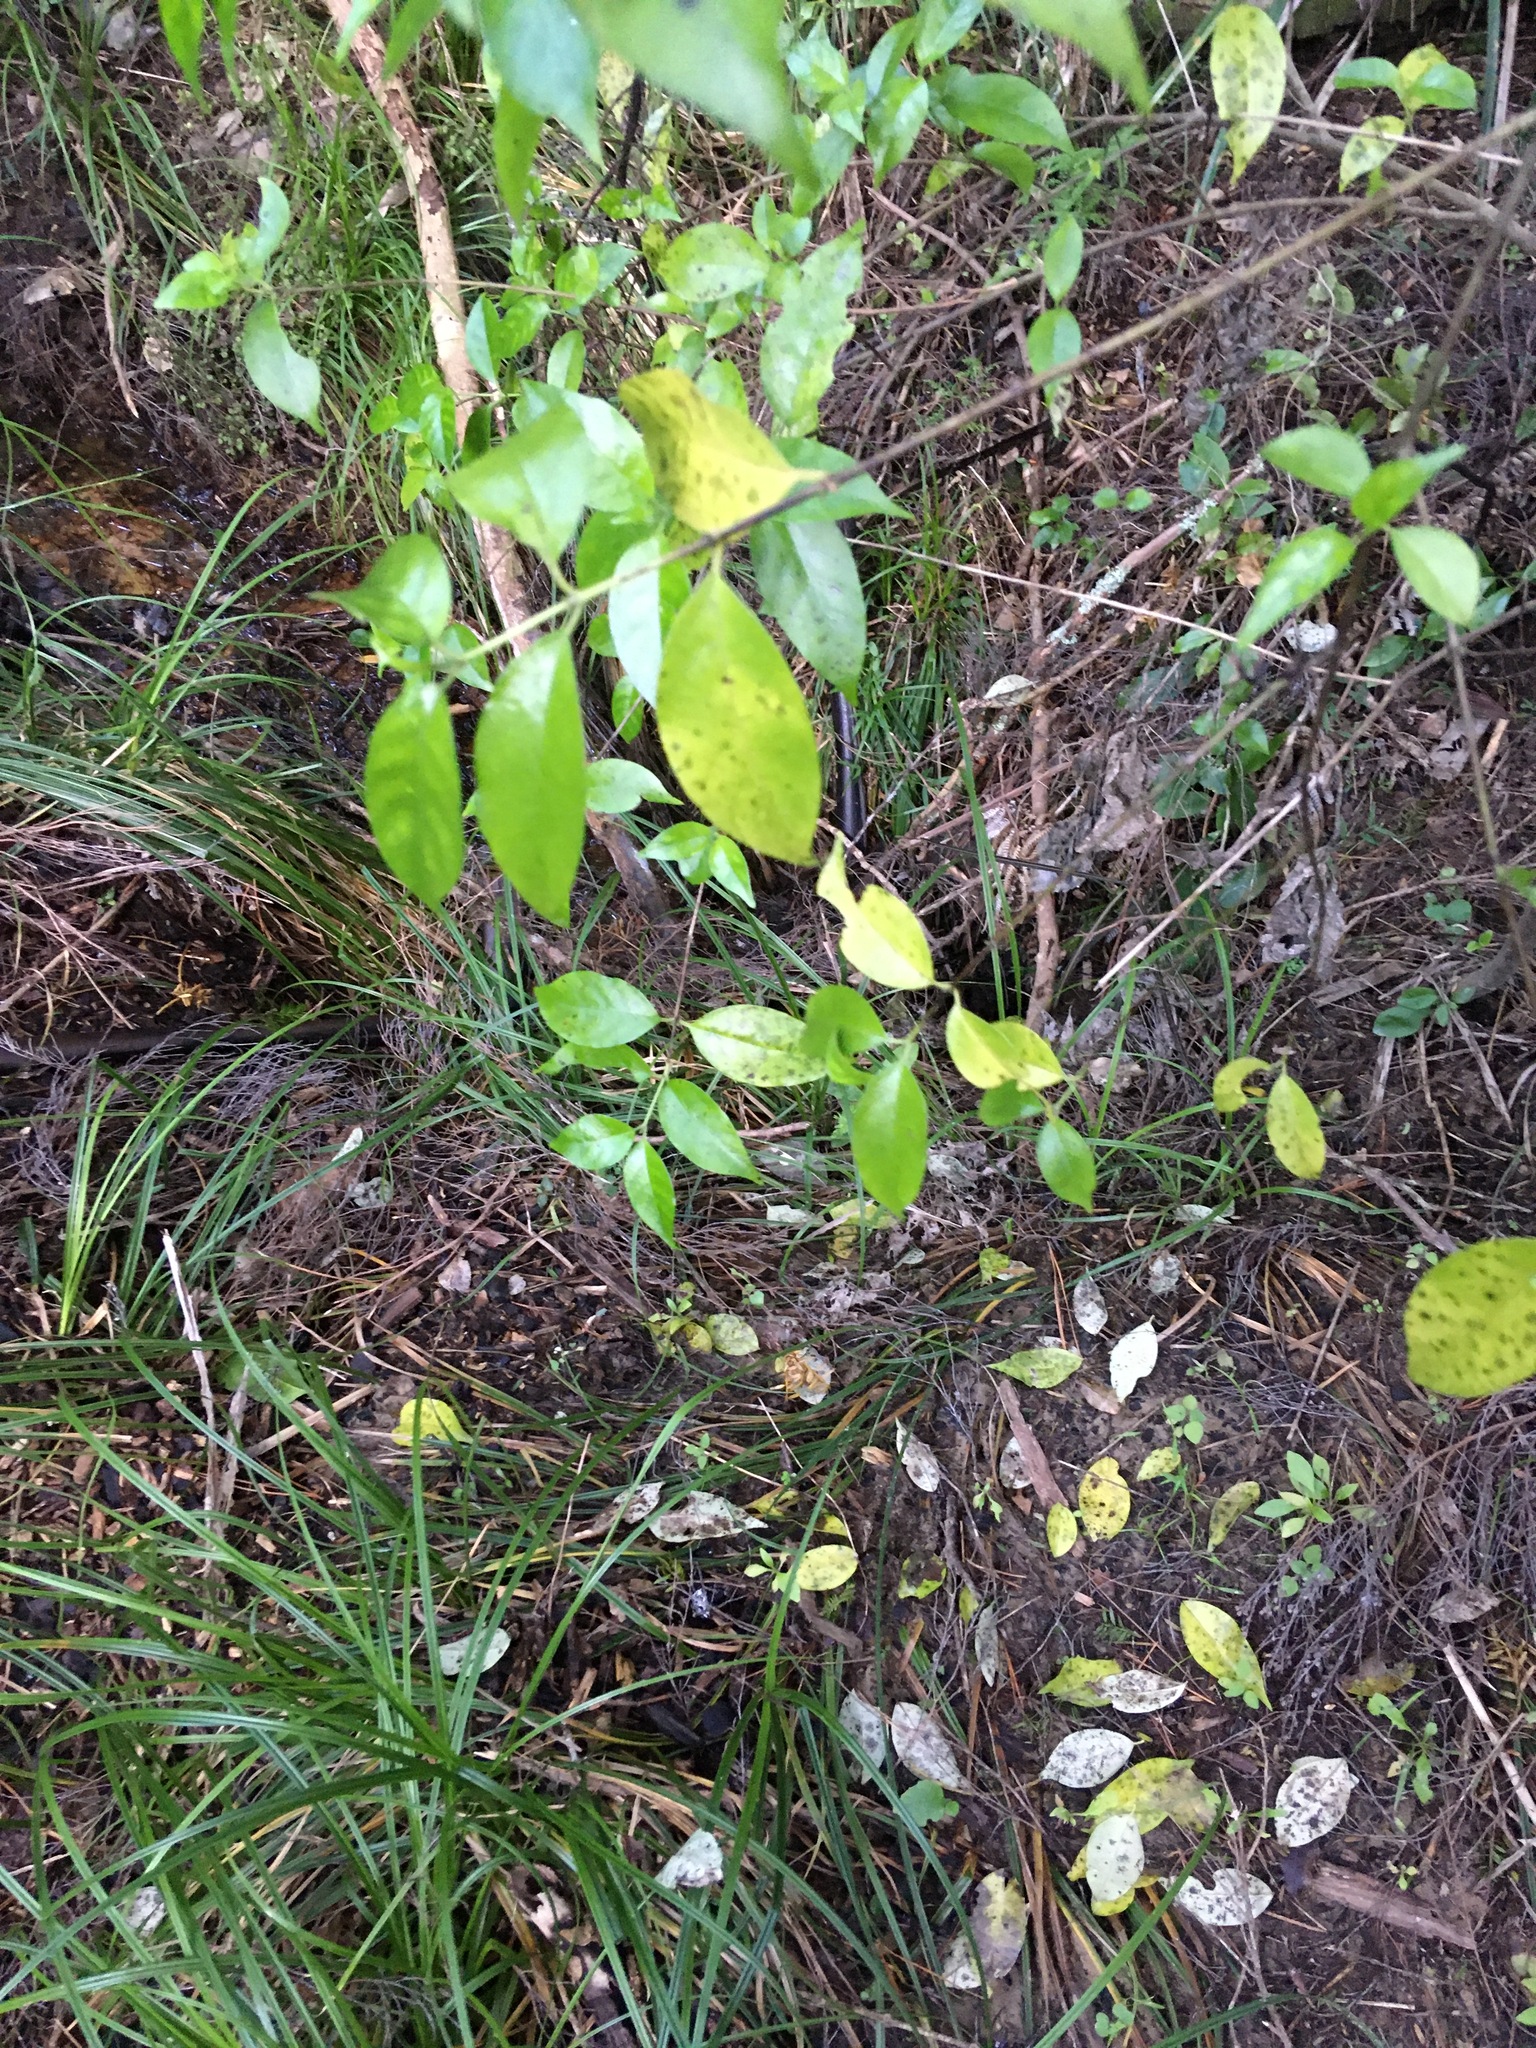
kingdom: Plantae
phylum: Tracheophyta
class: Magnoliopsida
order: Gentianales
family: Loganiaceae
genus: Geniostoma
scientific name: Geniostoma ligustrifolium
